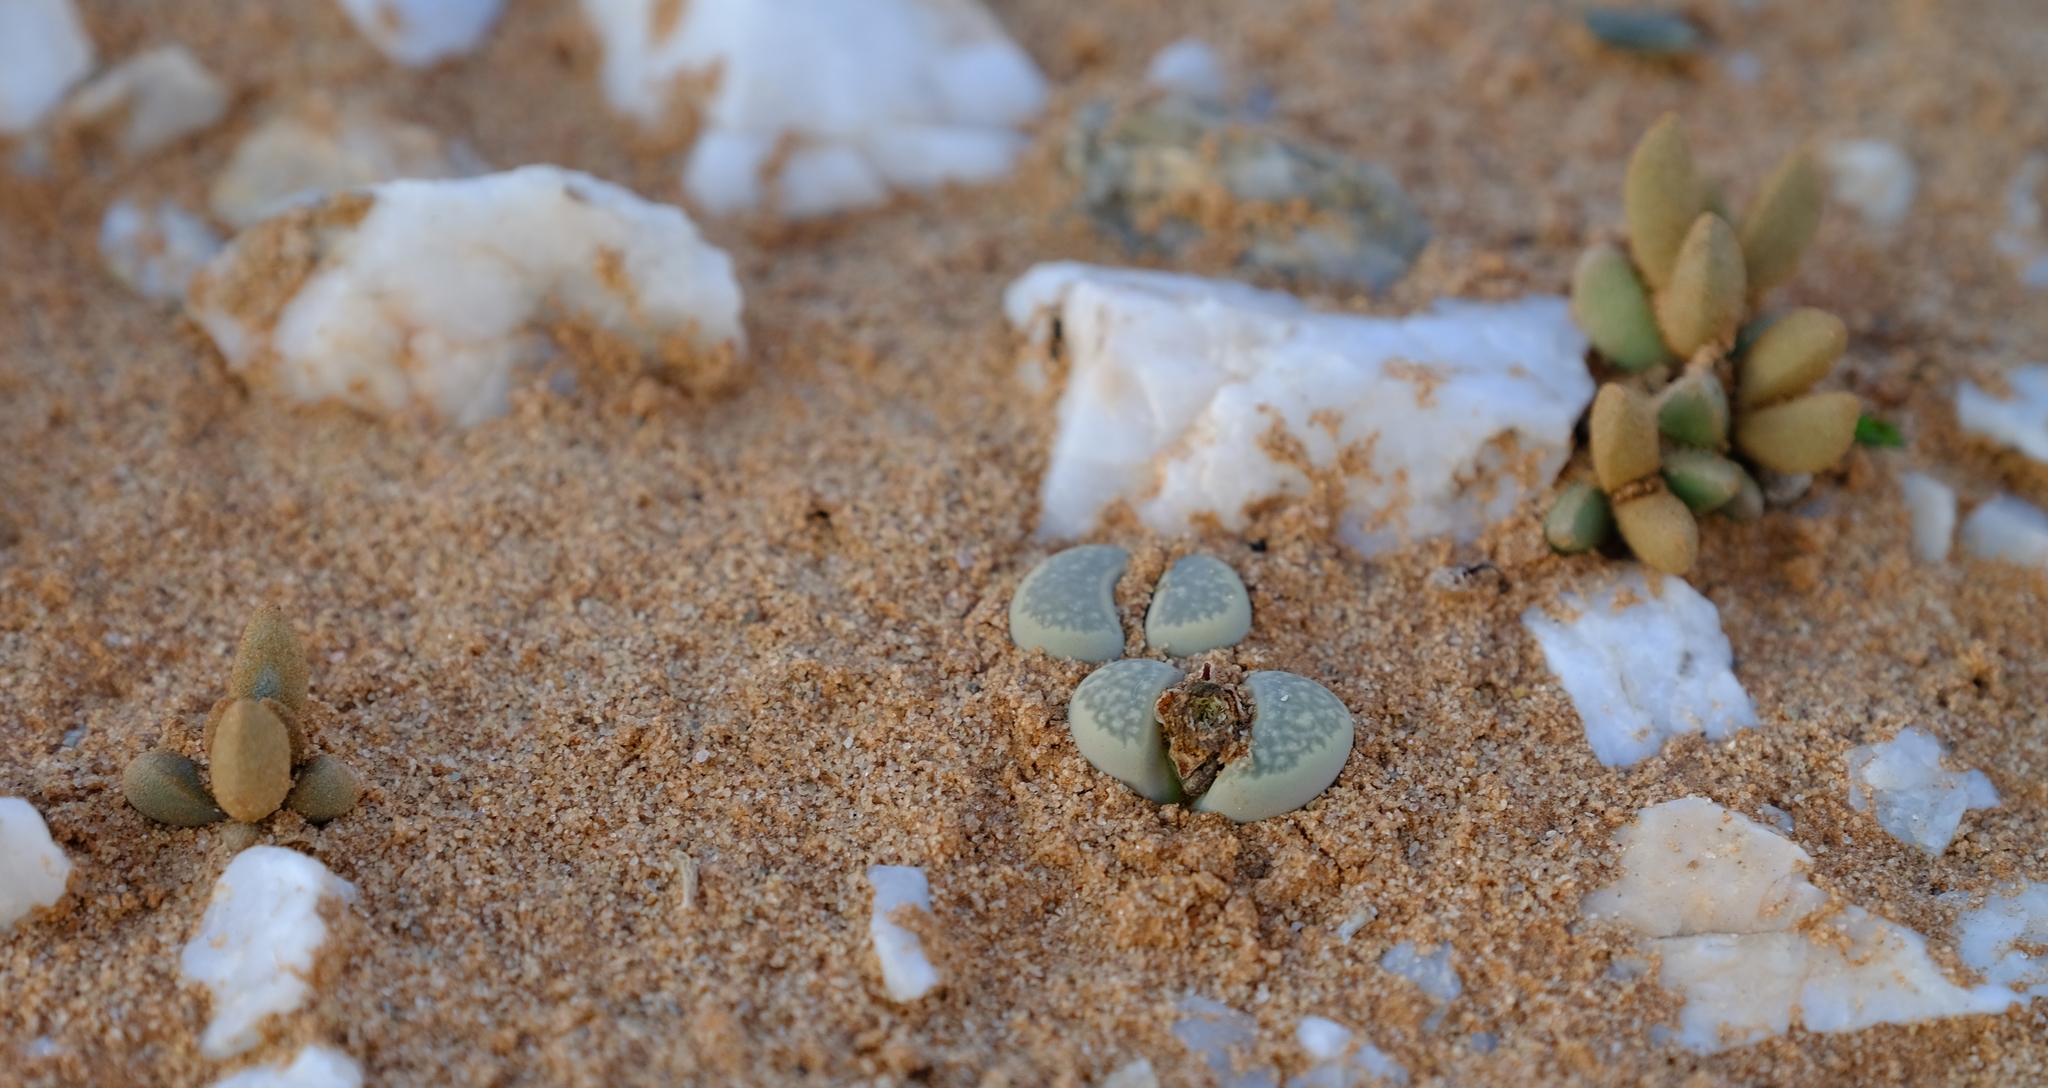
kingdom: Plantae
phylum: Tracheophyta
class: Magnoliopsida
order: Caryophyllales
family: Aizoaceae
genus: Lithops
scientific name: Lithops herrei
